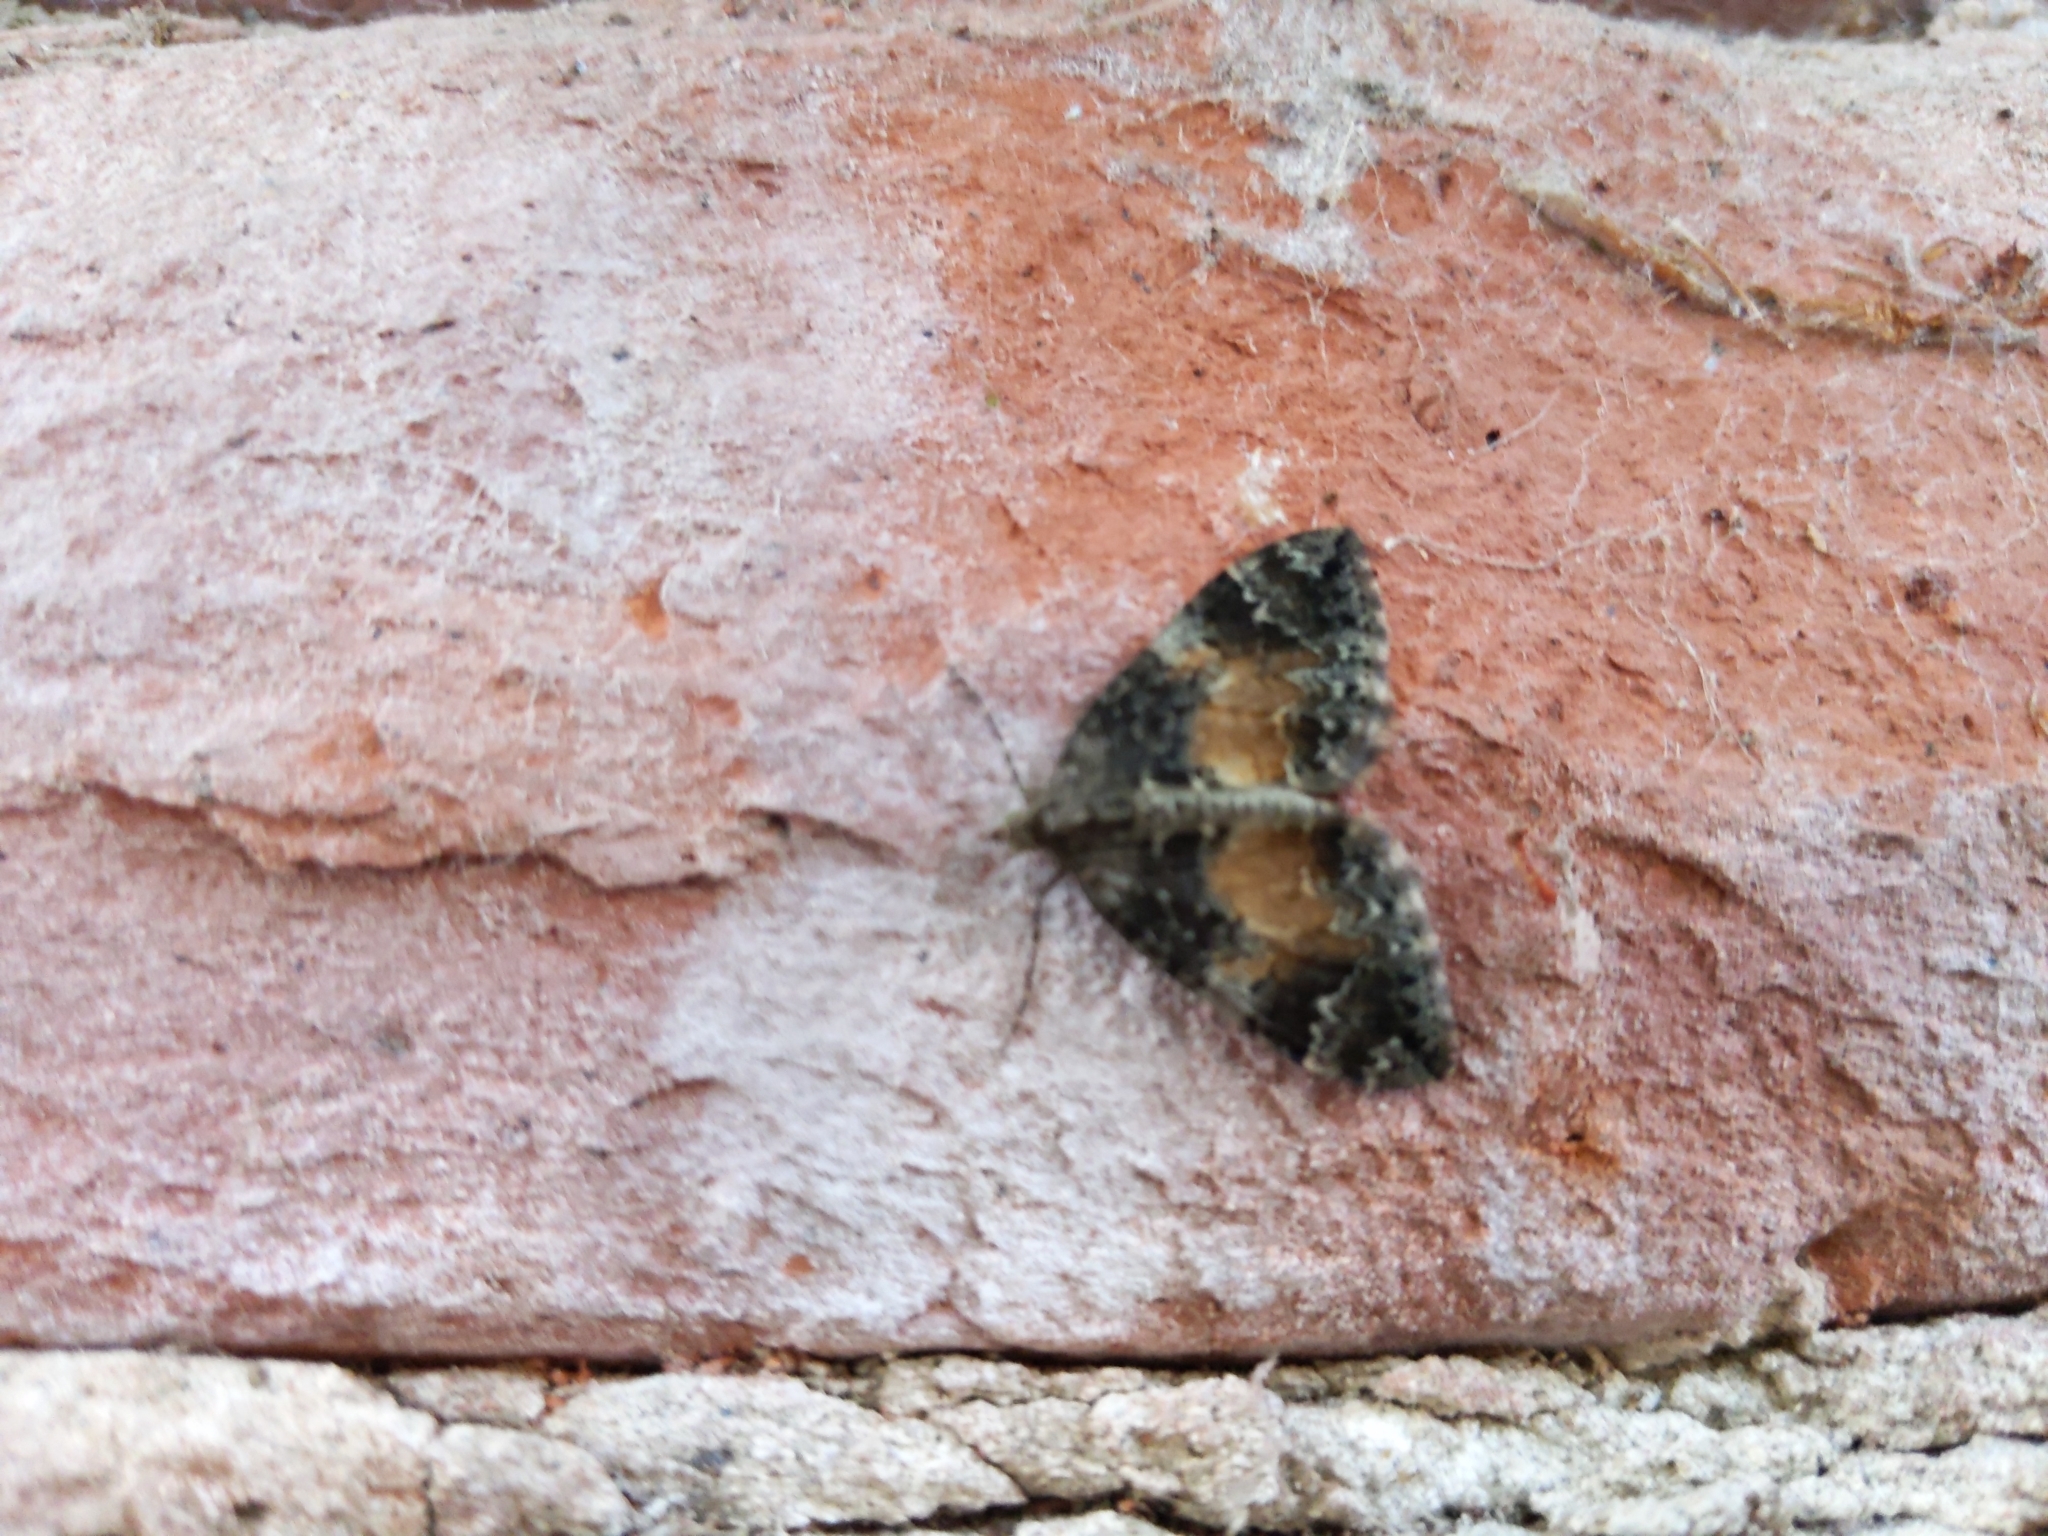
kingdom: Animalia
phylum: Arthropoda
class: Insecta
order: Lepidoptera
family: Geometridae
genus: Dysstroma
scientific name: Dysstroma truncata
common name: Common marbled carpet
